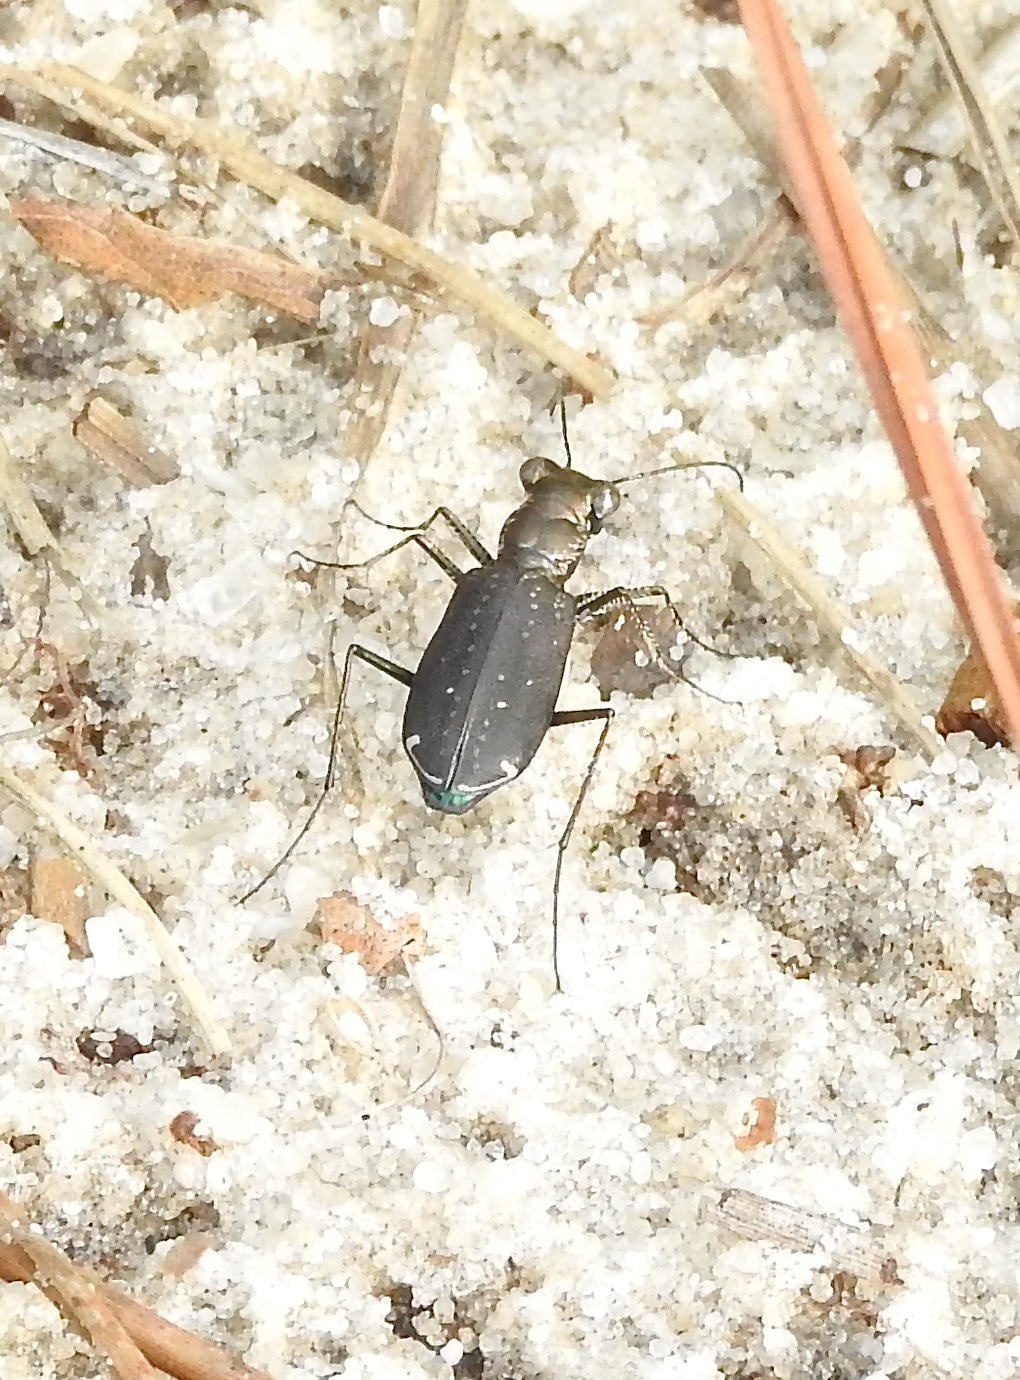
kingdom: Animalia
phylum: Arthropoda
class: Insecta
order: Coleoptera
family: Carabidae
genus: Cicindela
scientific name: Cicindela punctulata
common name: Punctured tiger beetle
